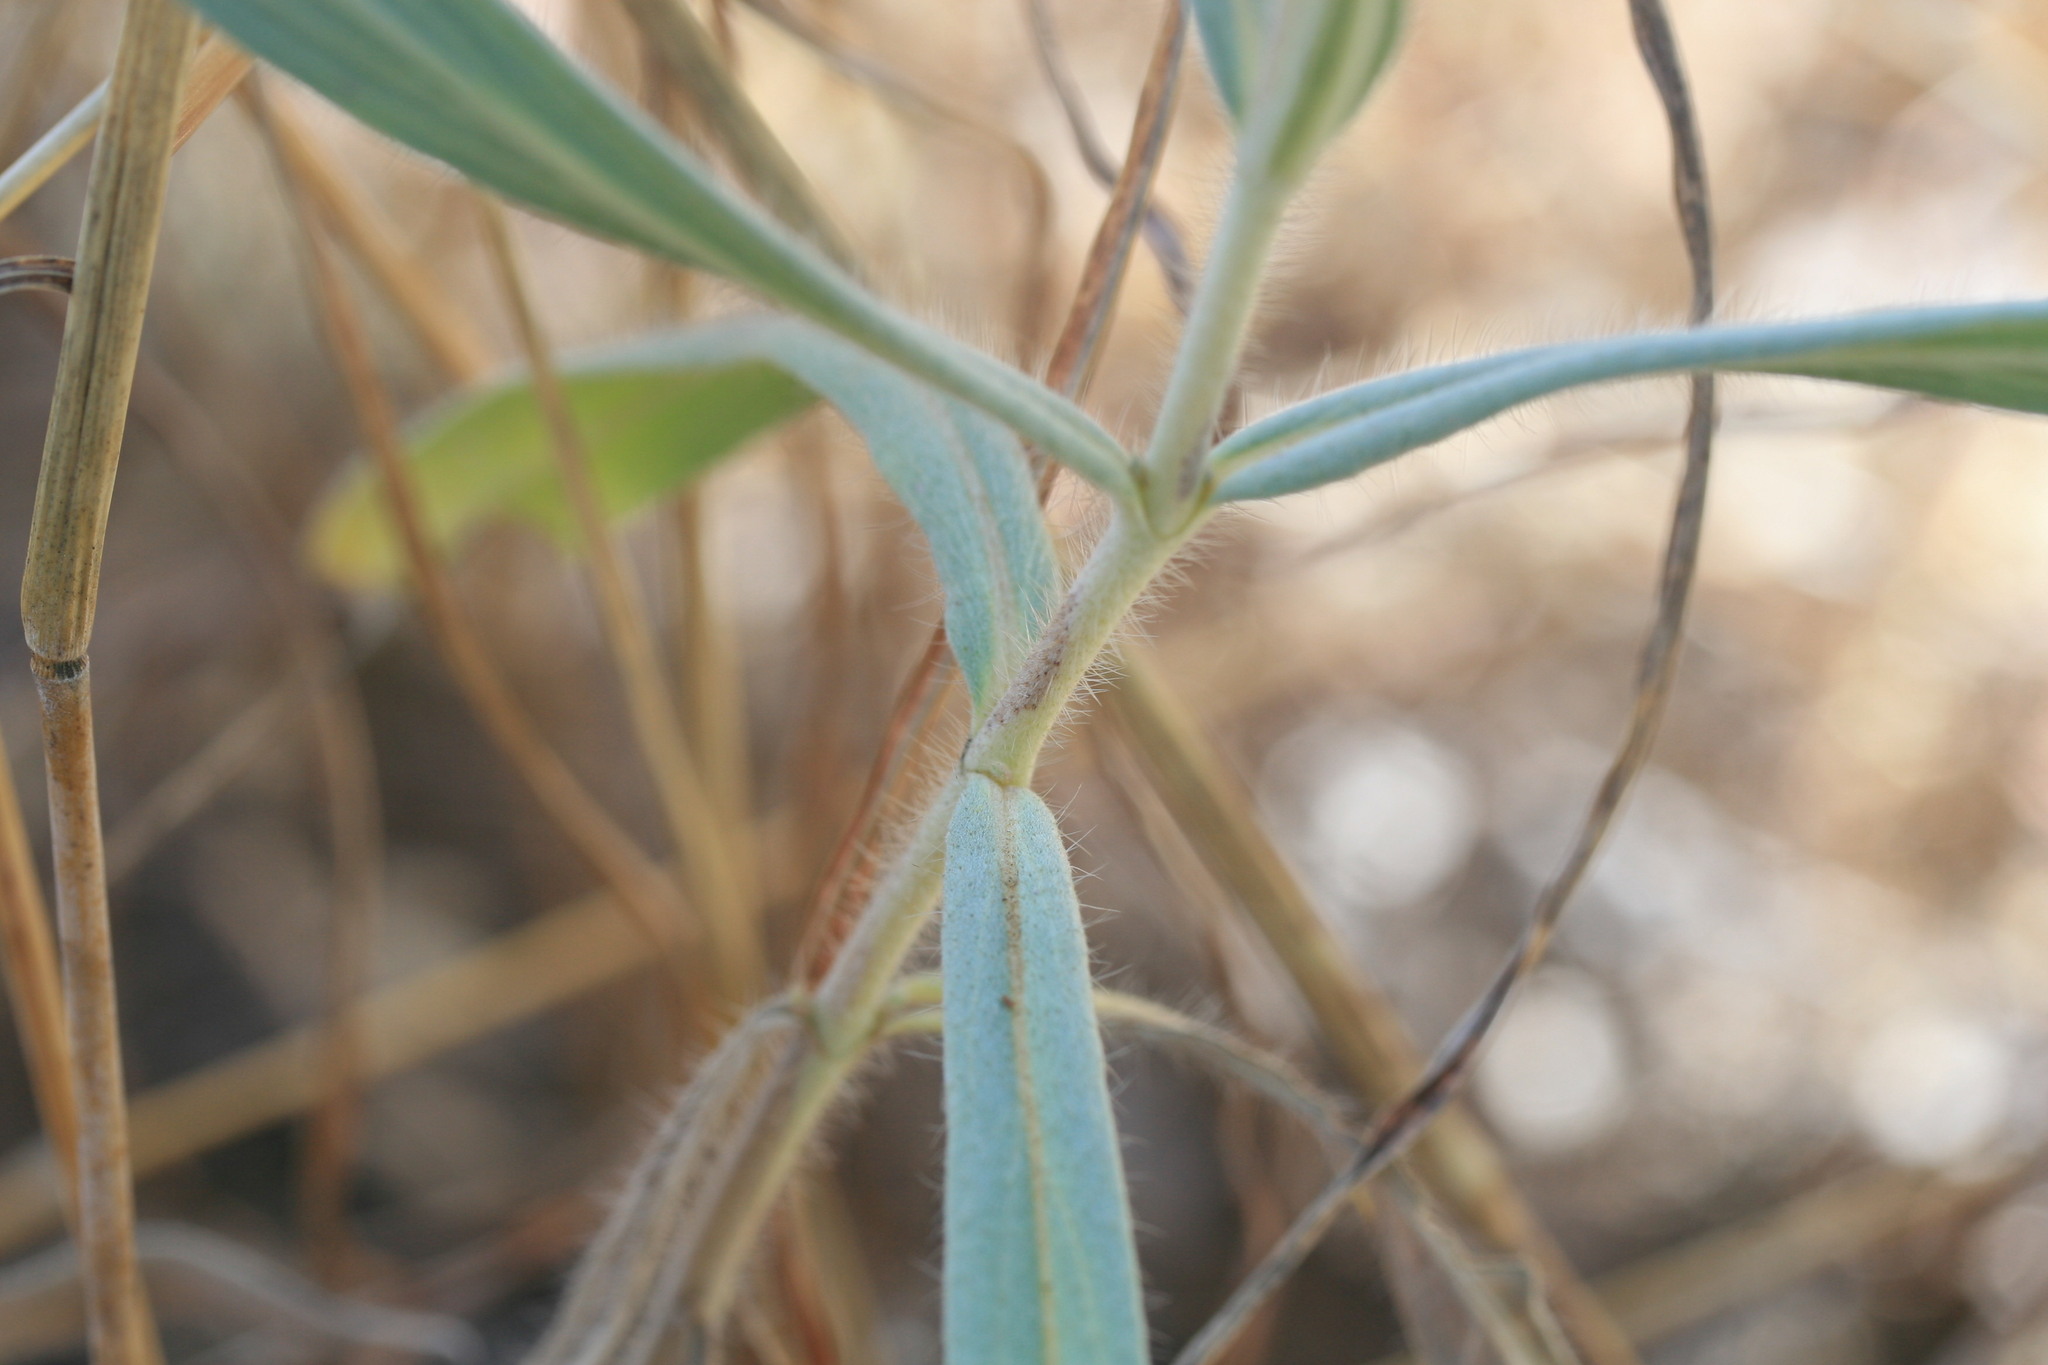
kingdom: Plantae
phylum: Tracheophyta
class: Magnoliopsida
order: Boraginales
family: Boraginaceae
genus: Trichodesma
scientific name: Trichodesma zeylanicum
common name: Camelbush
